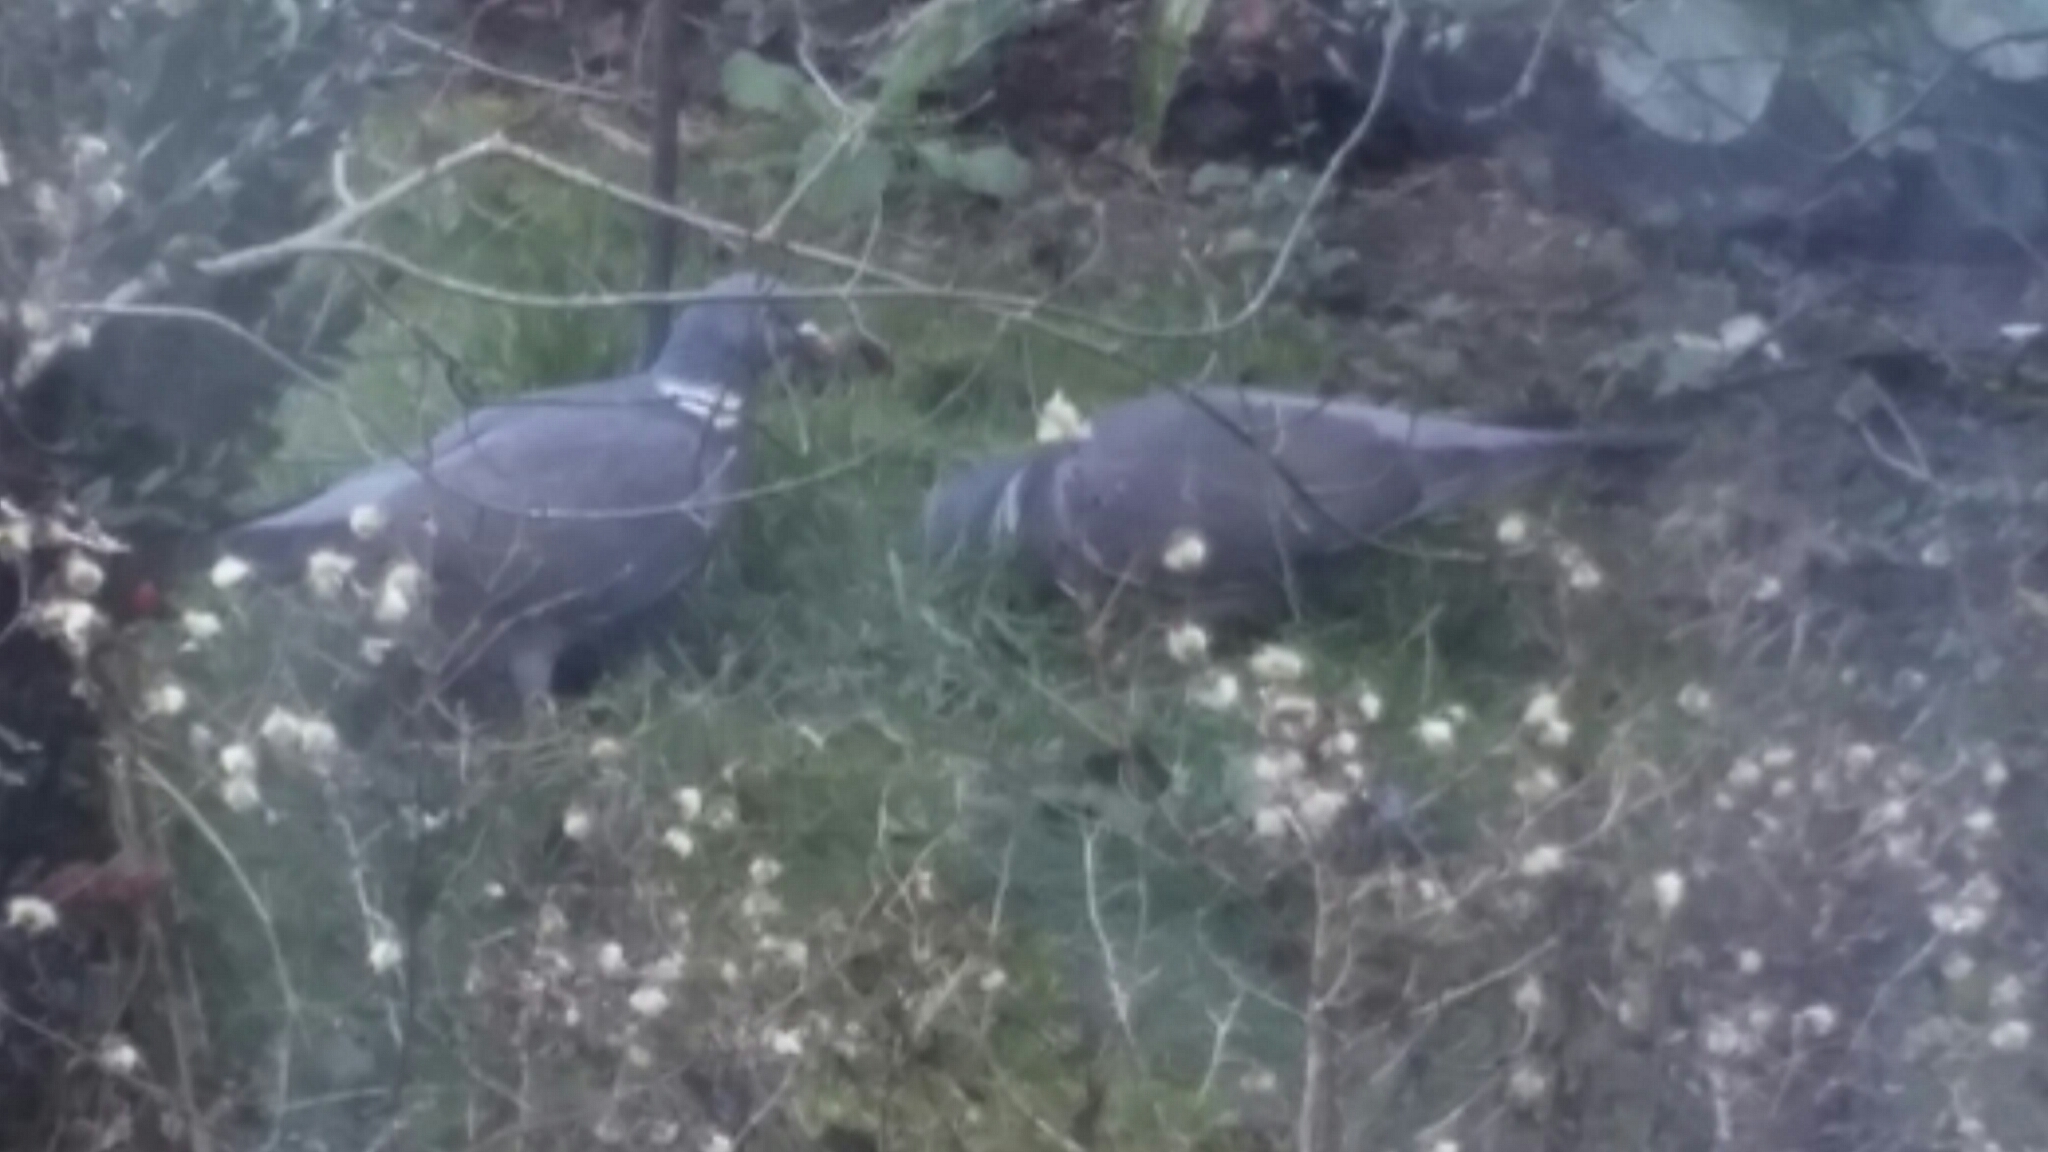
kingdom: Animalia
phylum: Chordata
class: Aves
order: Columbiformes
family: Columbidae
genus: Columba
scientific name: Columba palumbus
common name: Common wood pigeon
